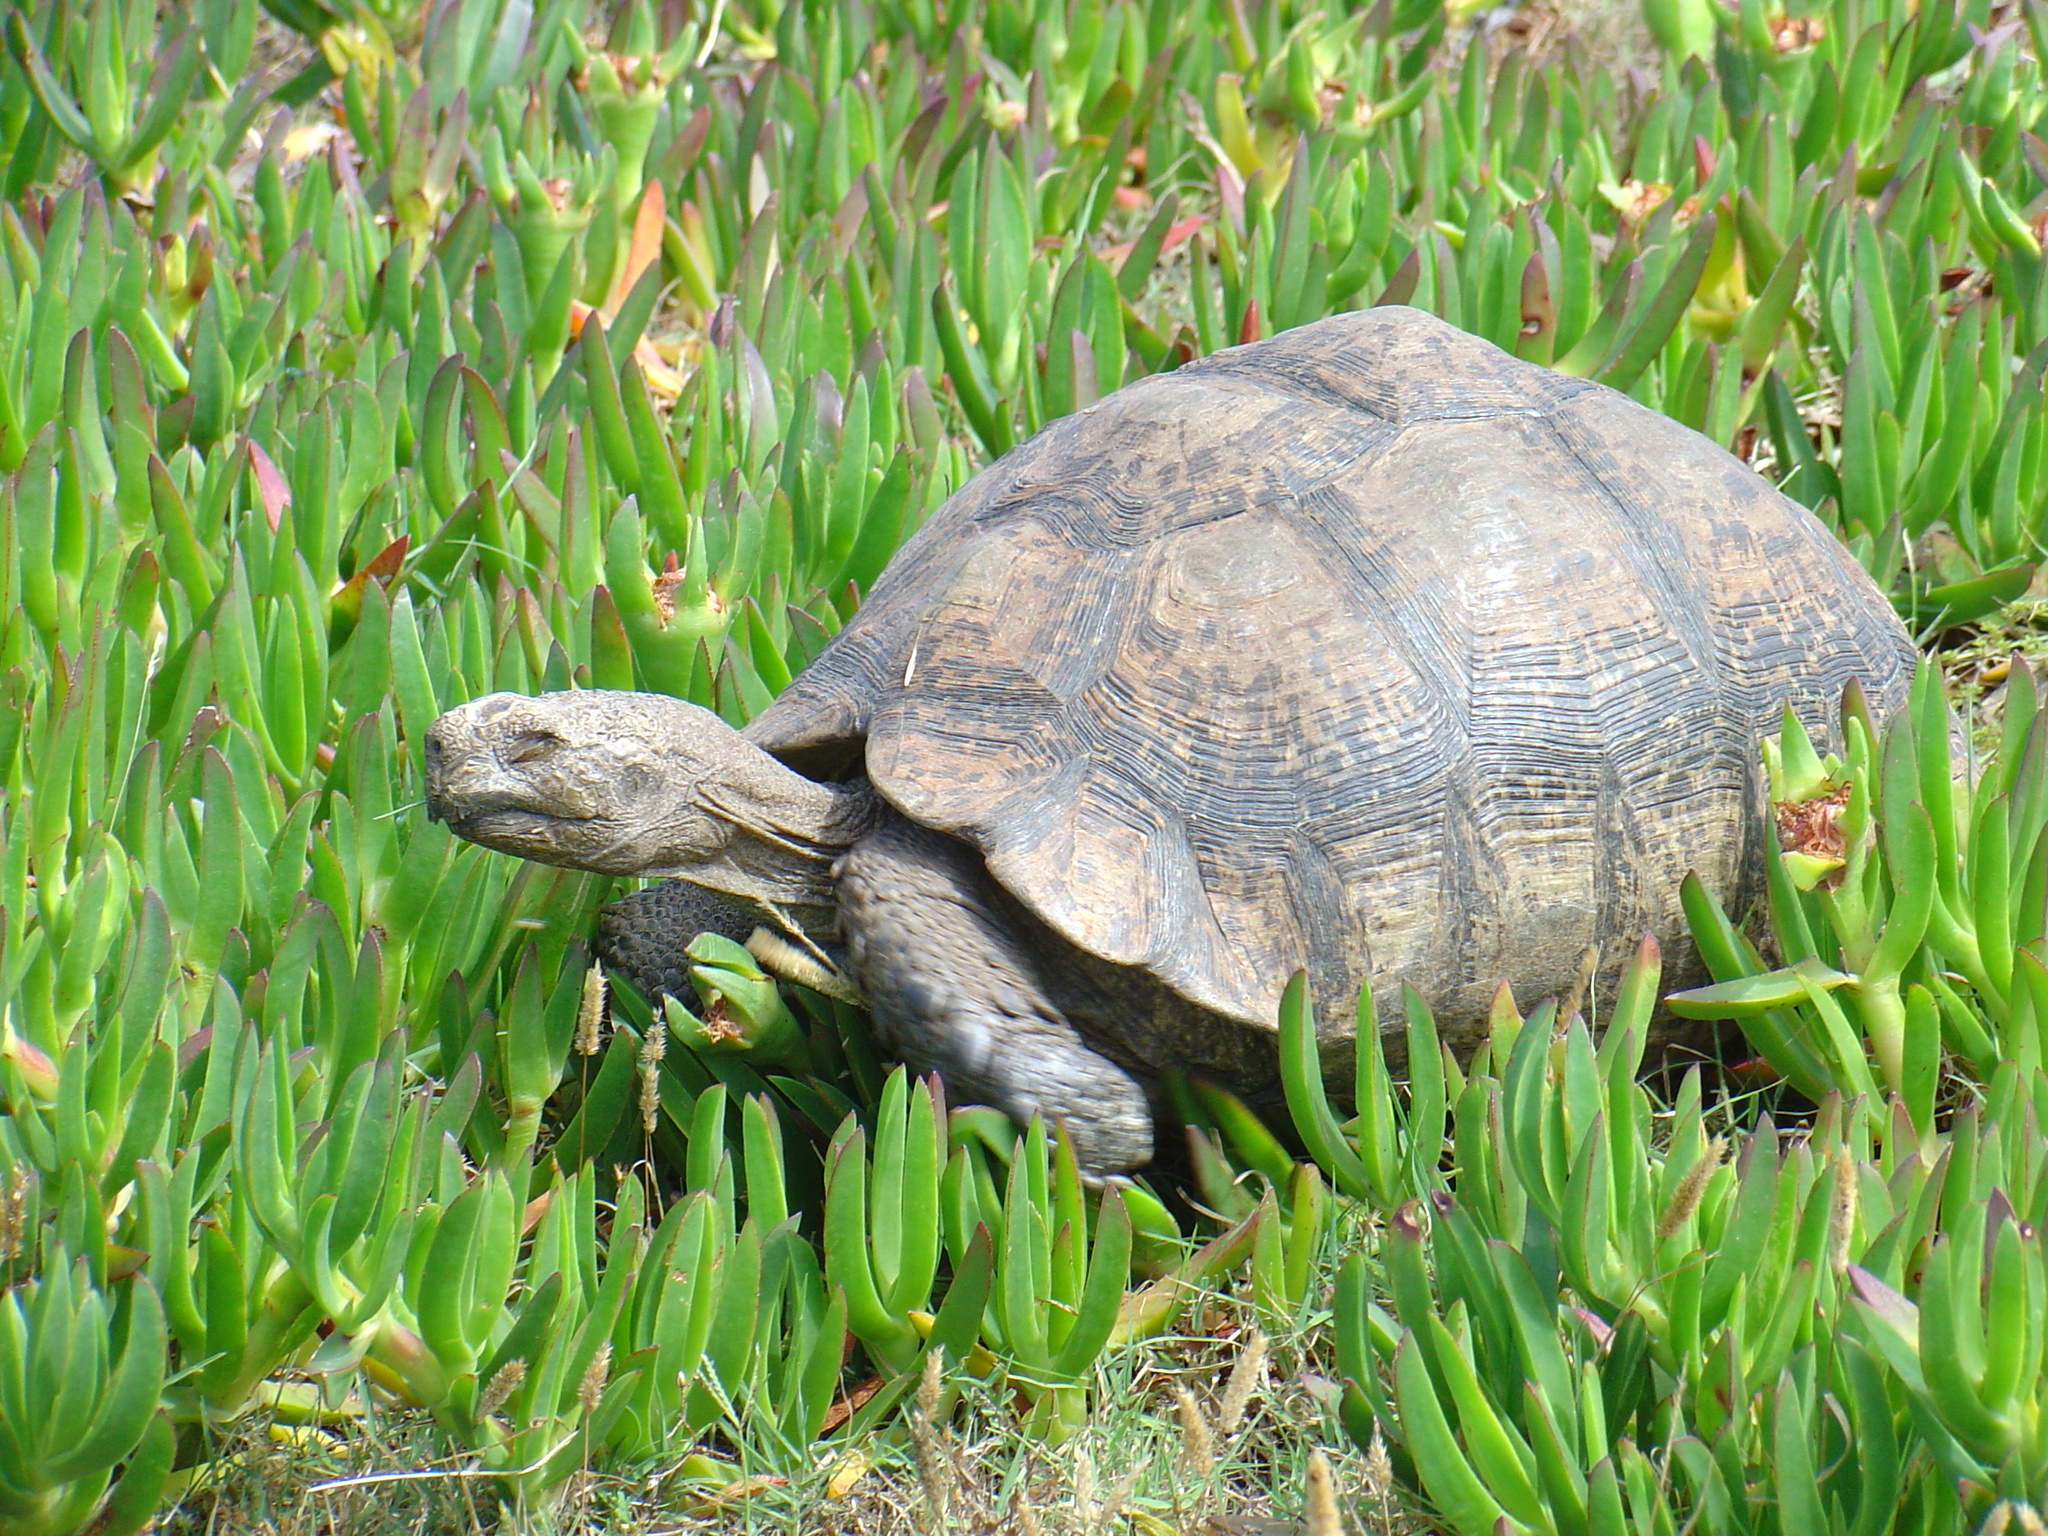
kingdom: Animalia
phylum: Chordata
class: Testudines
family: Testudinidae
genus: Stigmochelys
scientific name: Stigmochelys pardalis
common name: Leopard tortoise
